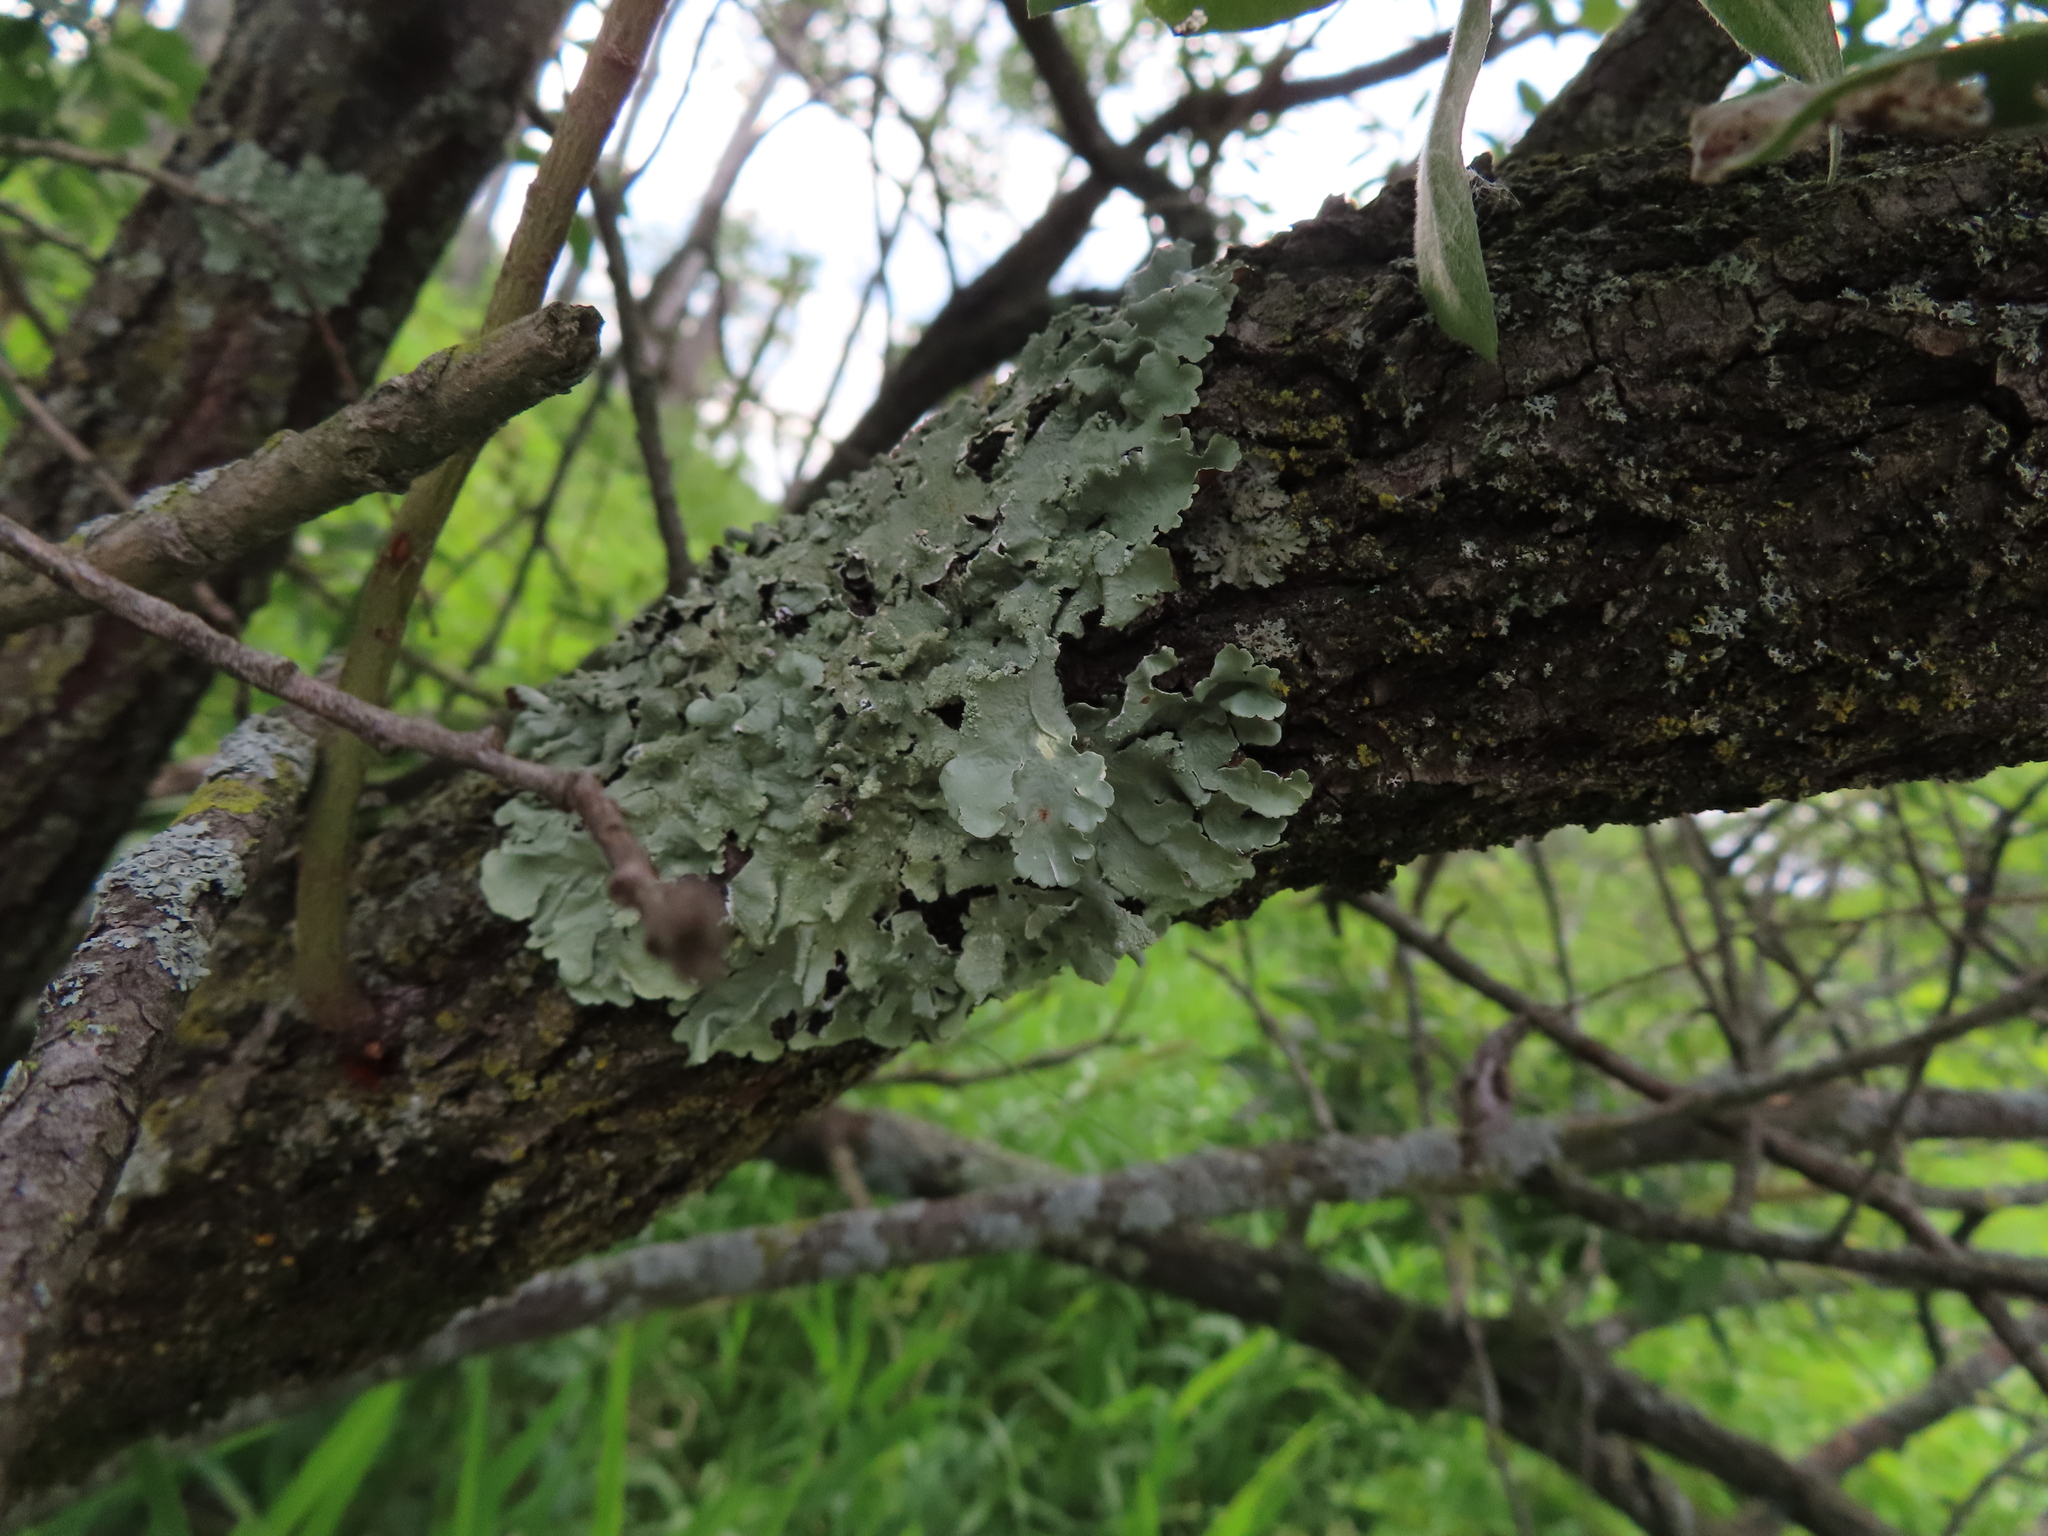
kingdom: Fungi
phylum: Ascomycota
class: Lecanoromycetes
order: Lecanorales
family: Parmeliaceae
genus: Flavoparmelia
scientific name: Flavoparmelia caperata
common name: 40-mile per hour lichen
